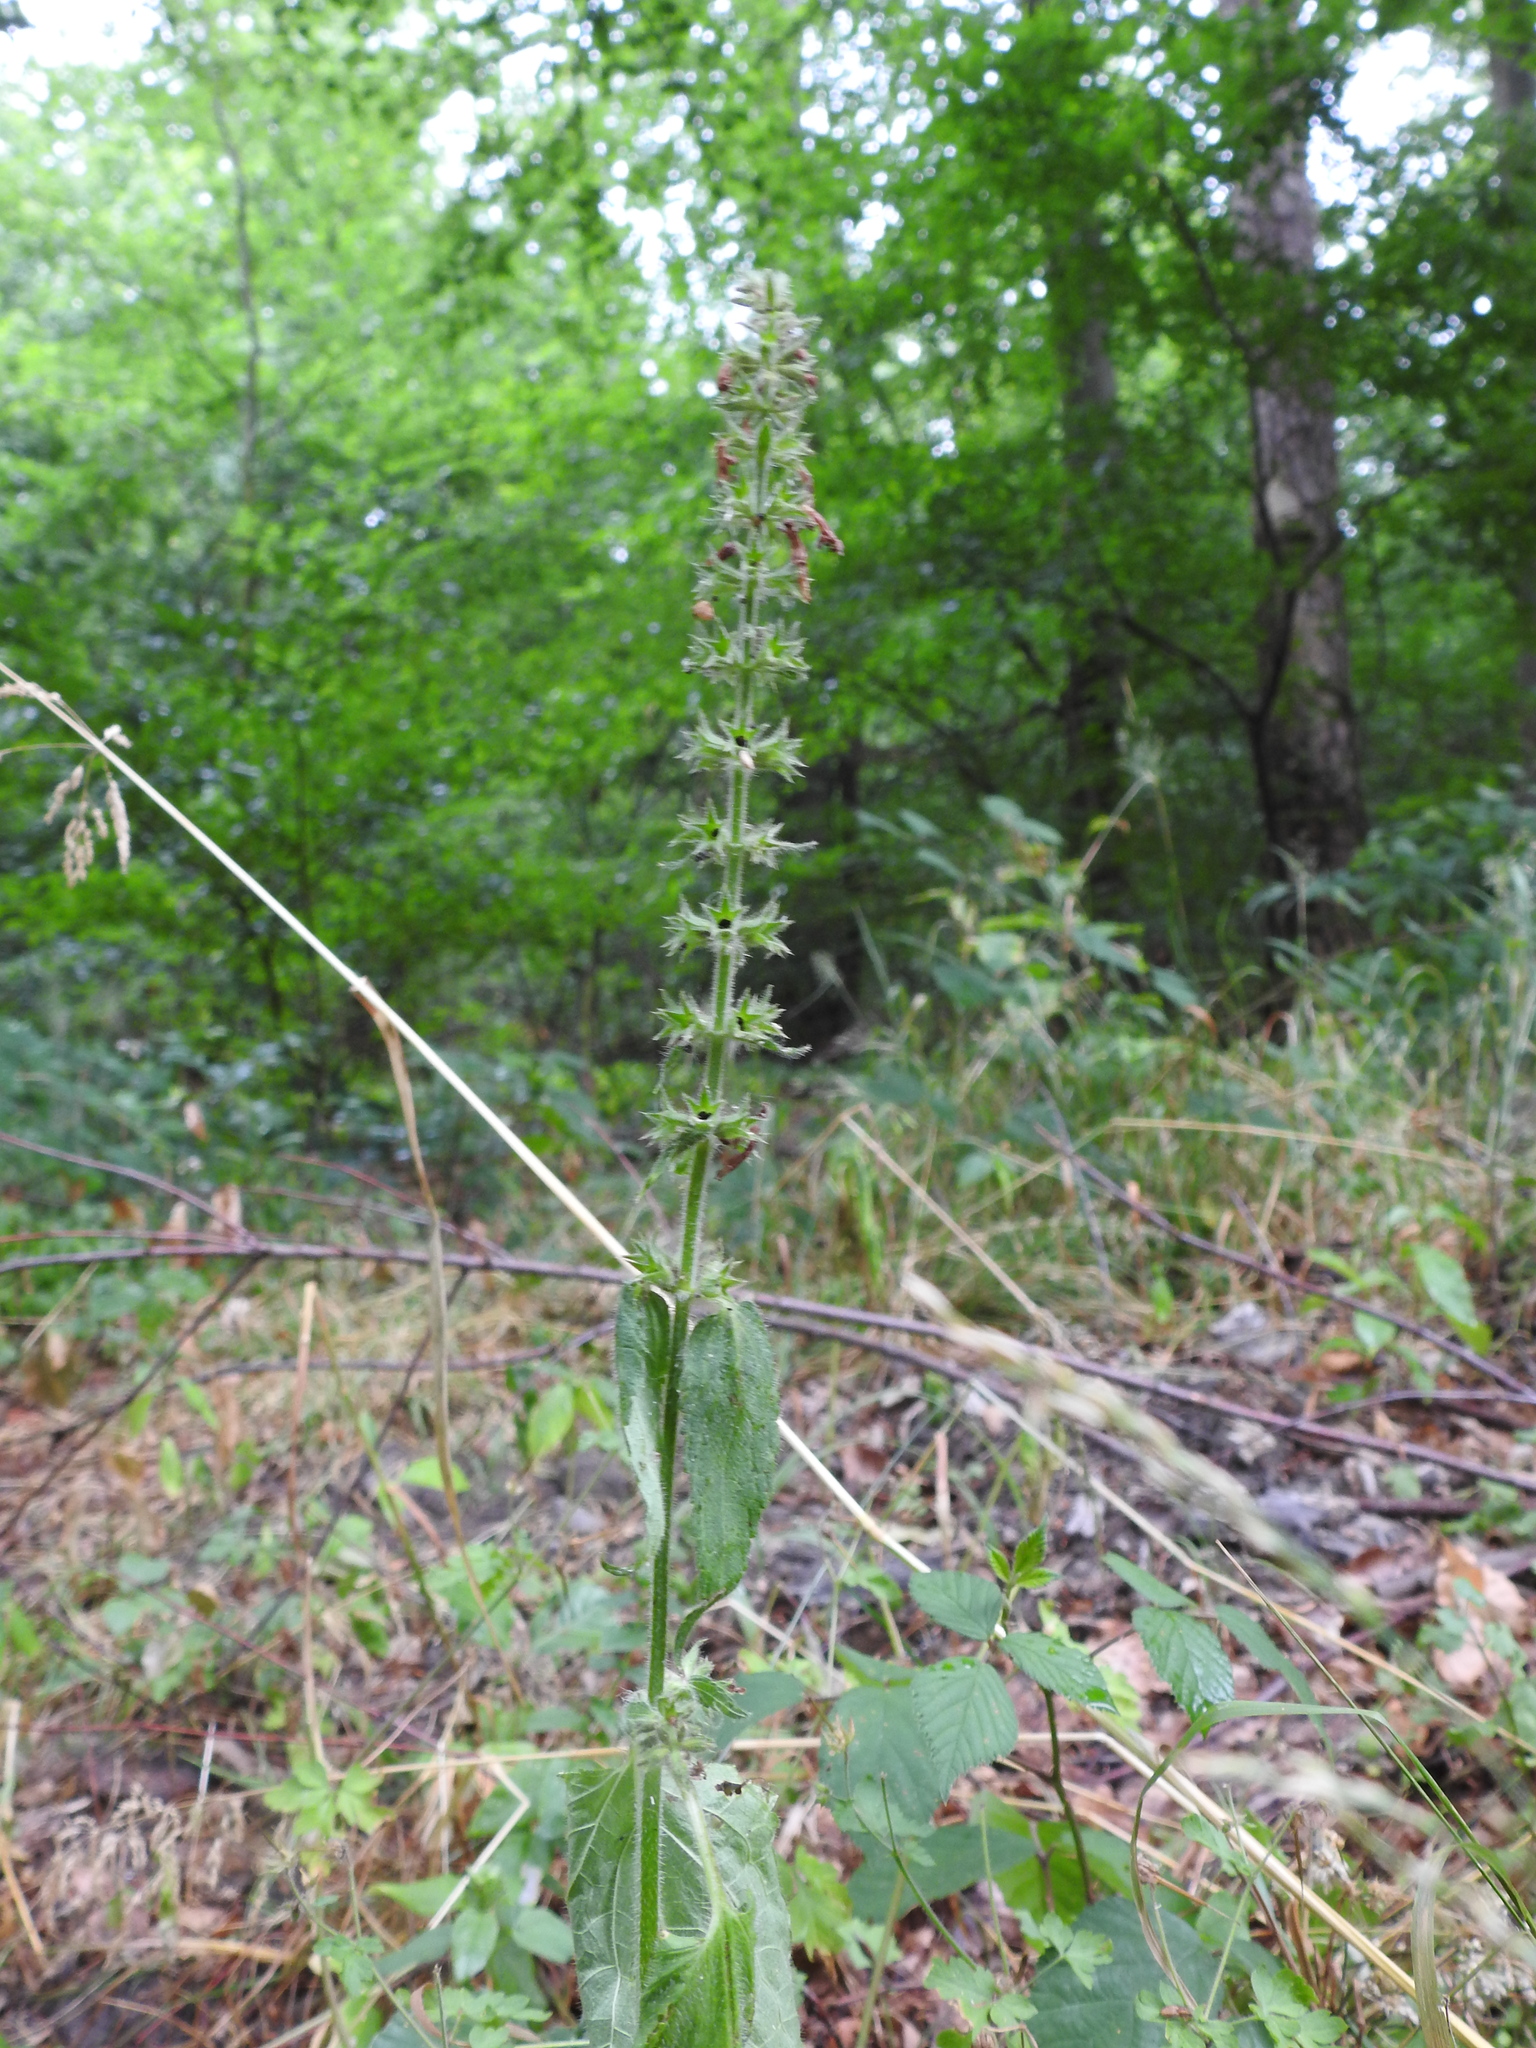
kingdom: Plantae
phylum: Tracheophyta
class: Magnoliopsida
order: Lamiales
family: Lamiaceae
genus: Stachys
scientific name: Stachys sylvatica
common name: Hedge woundwort
